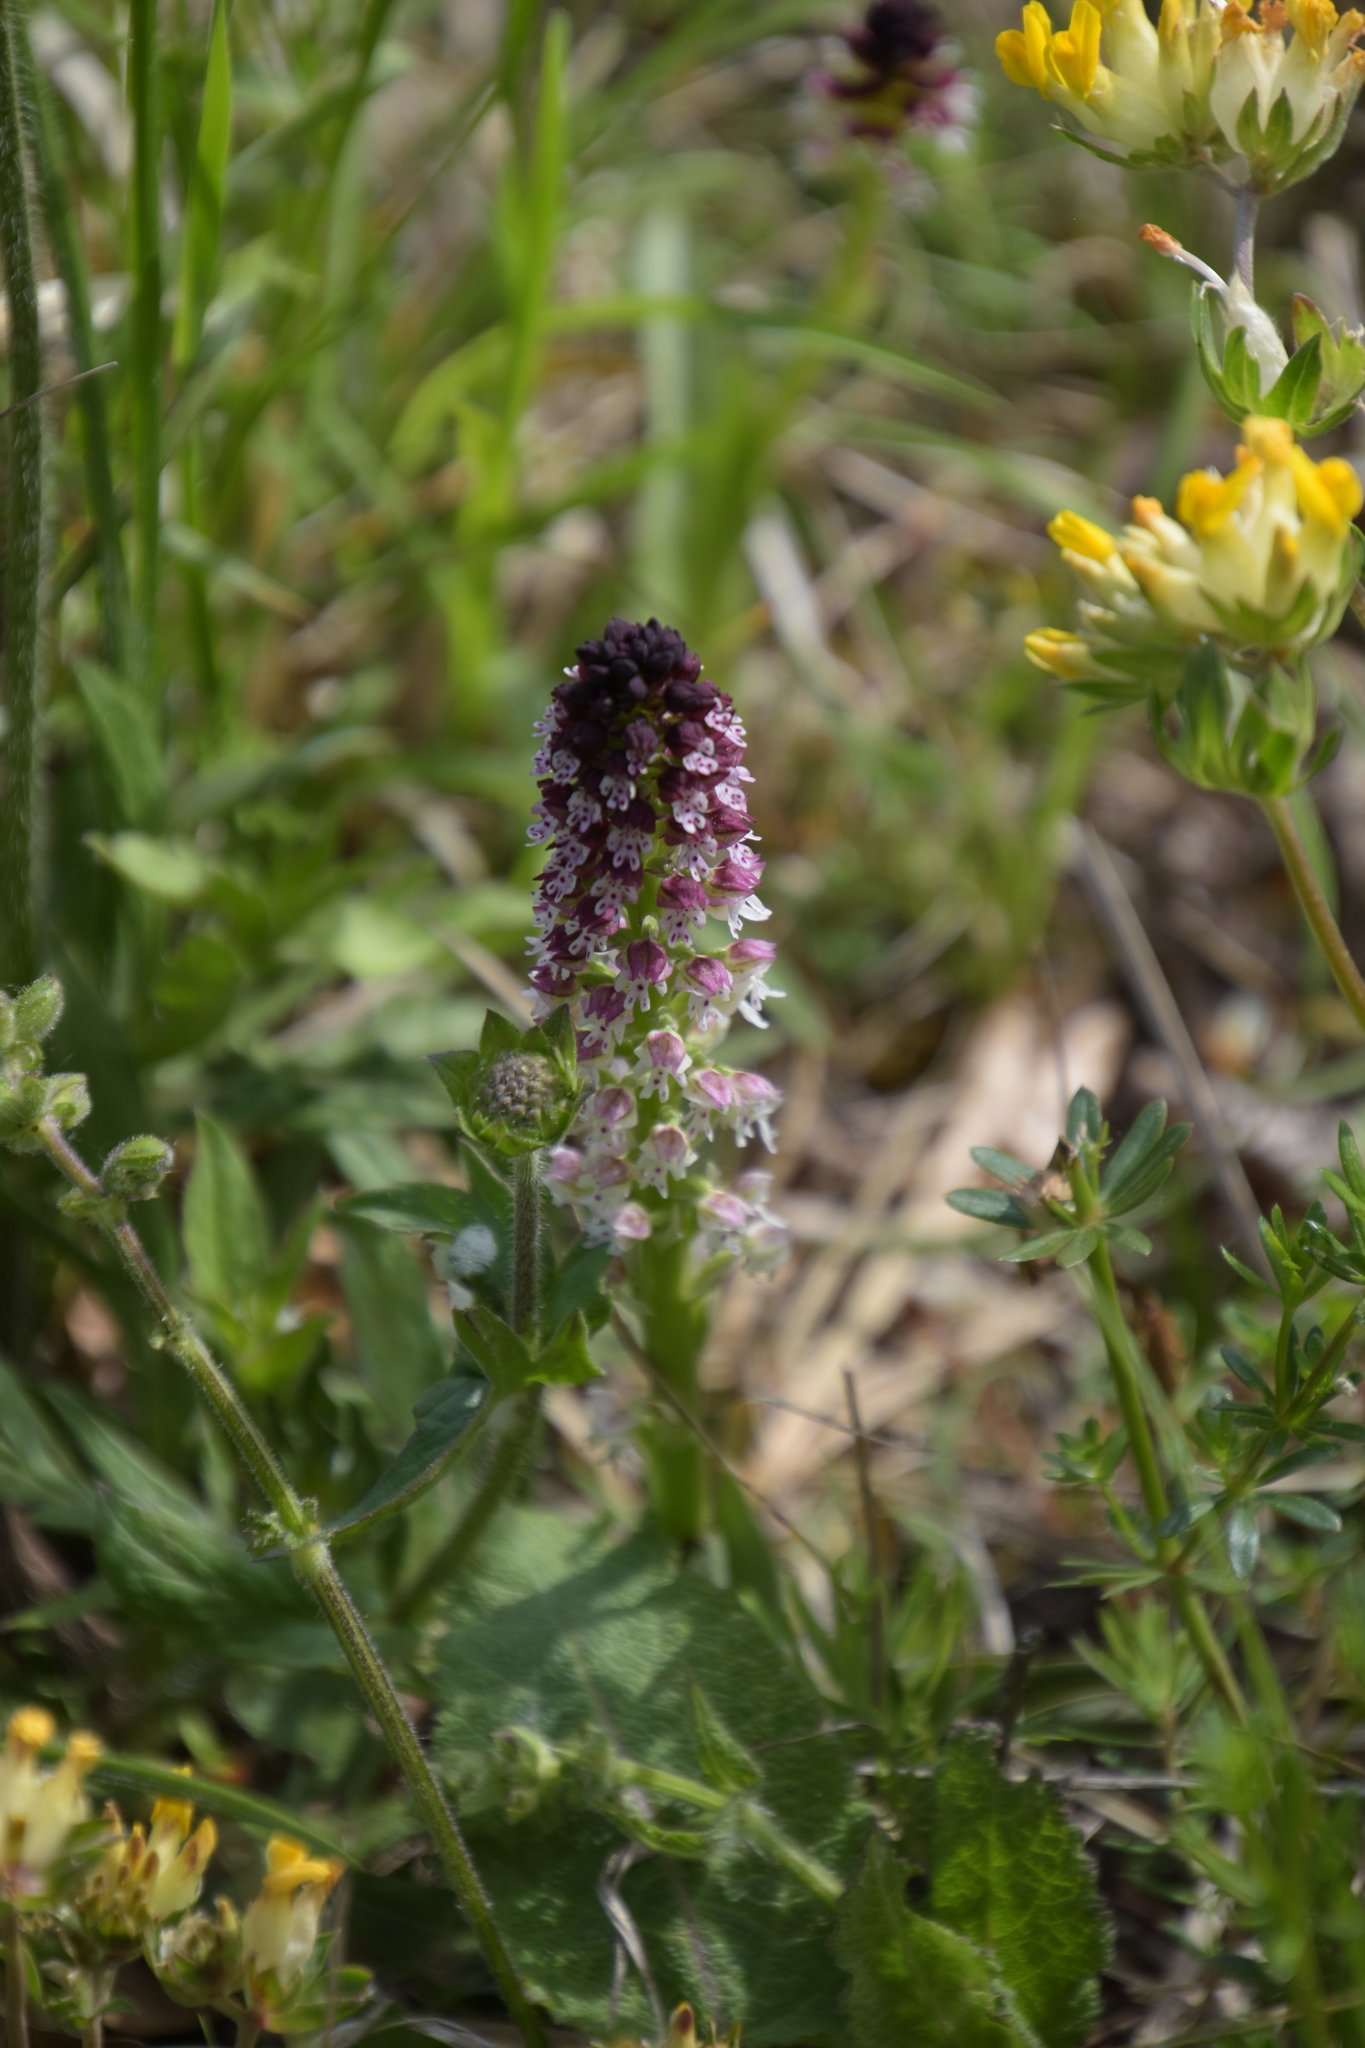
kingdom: Plantae
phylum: Tracheophyta
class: Liliopsida
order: Asparagales
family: Orchidaceae
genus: Neotinea
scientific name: Neotinea ustulata
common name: Burnt orchid
